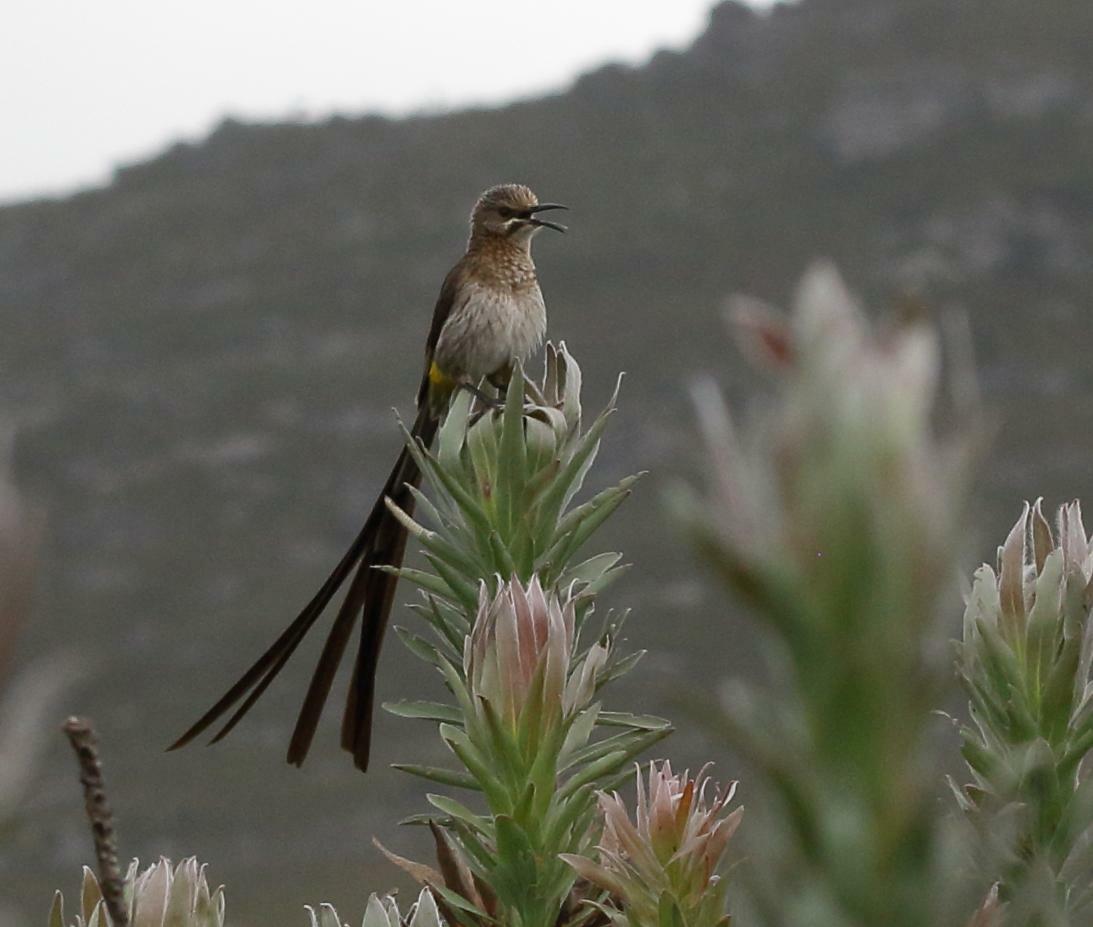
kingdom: Animalia
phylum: Chordata
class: Aves
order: Passeriformes
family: Promeropidae
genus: Promerops
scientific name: Promerops cafer
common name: Cape sugarbird
